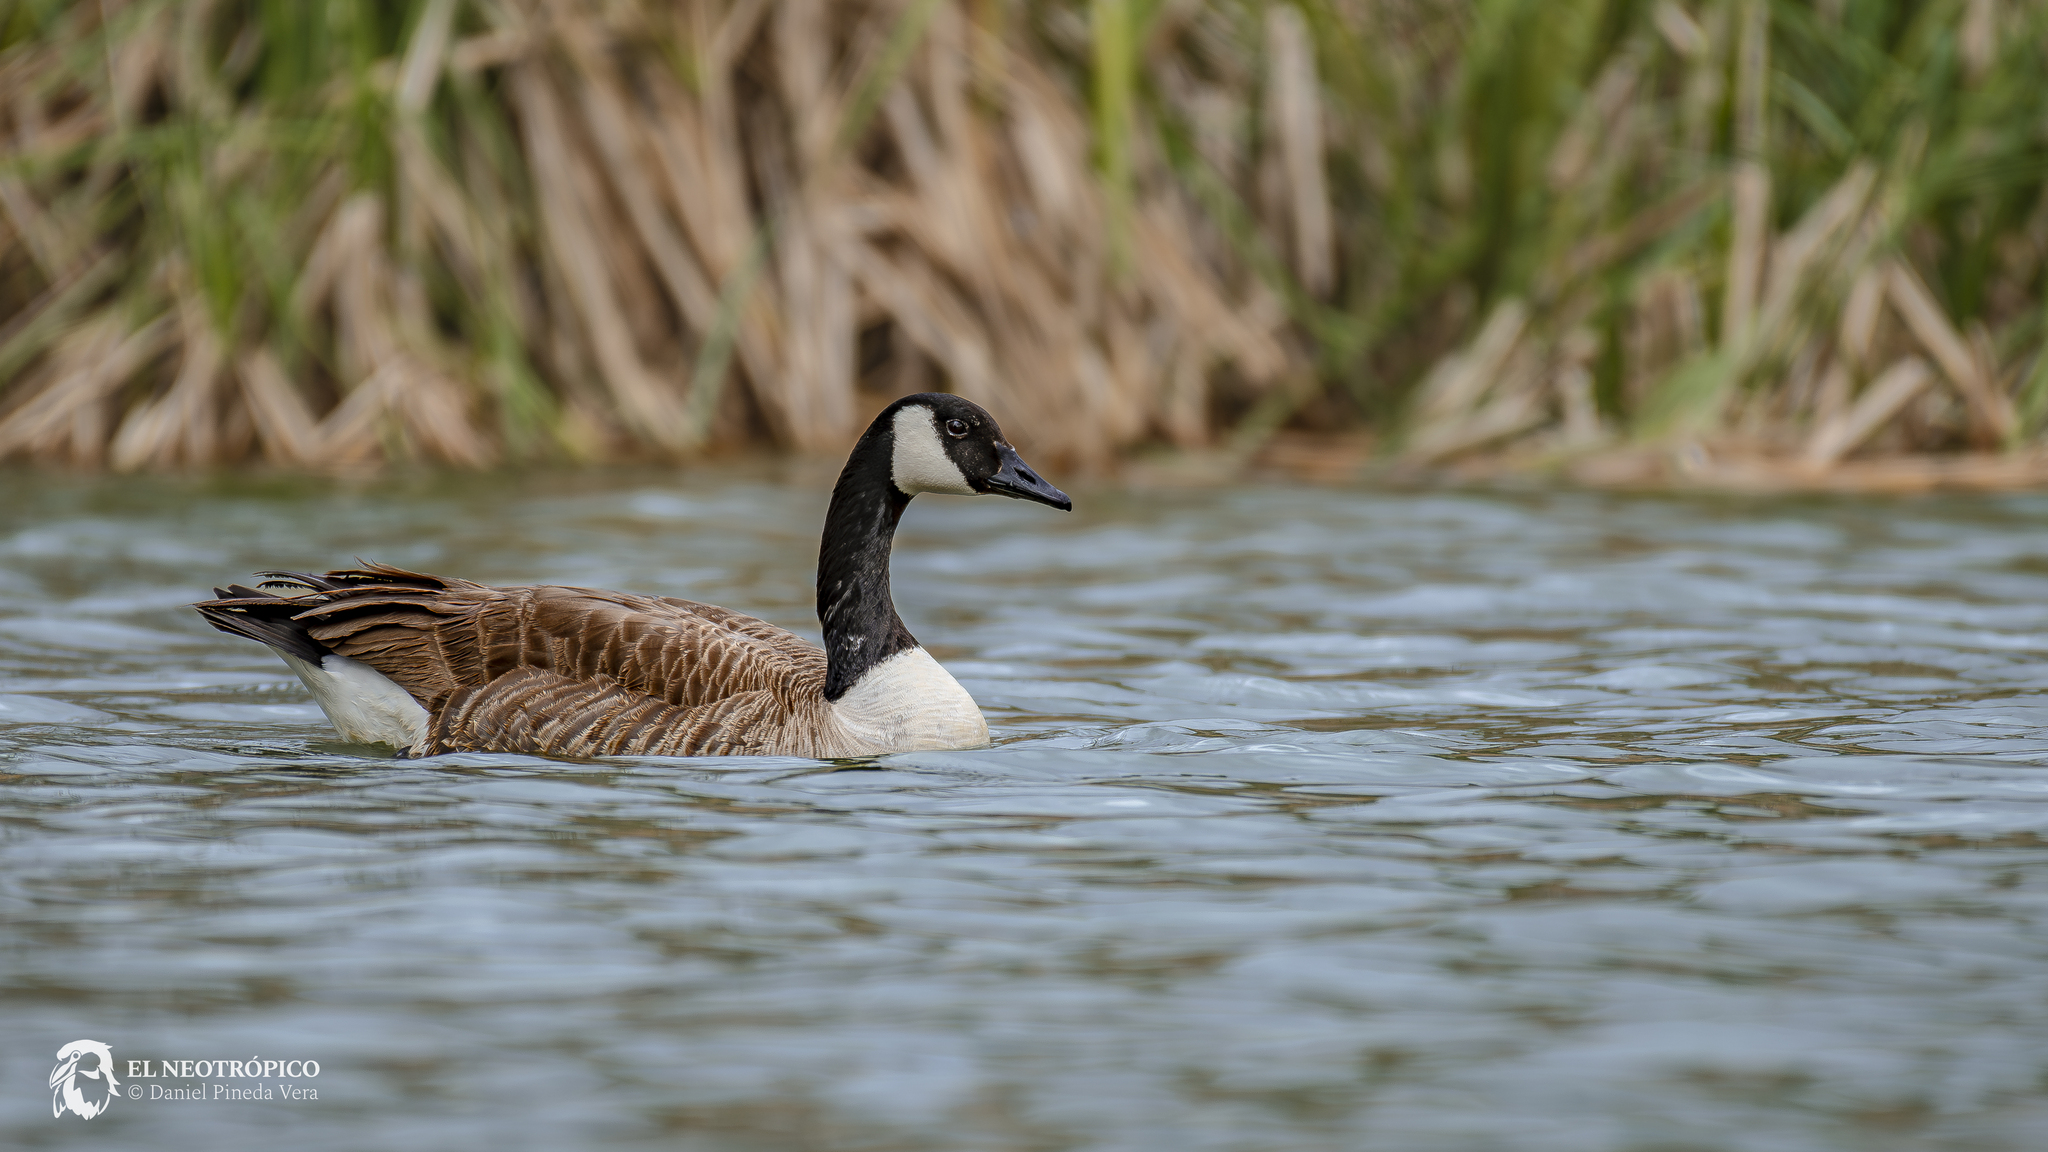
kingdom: Animalia
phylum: Chordata
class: Aves
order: Anseriformes
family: Anatidae
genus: Branta
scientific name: Branta canadensis
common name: Canada goose
